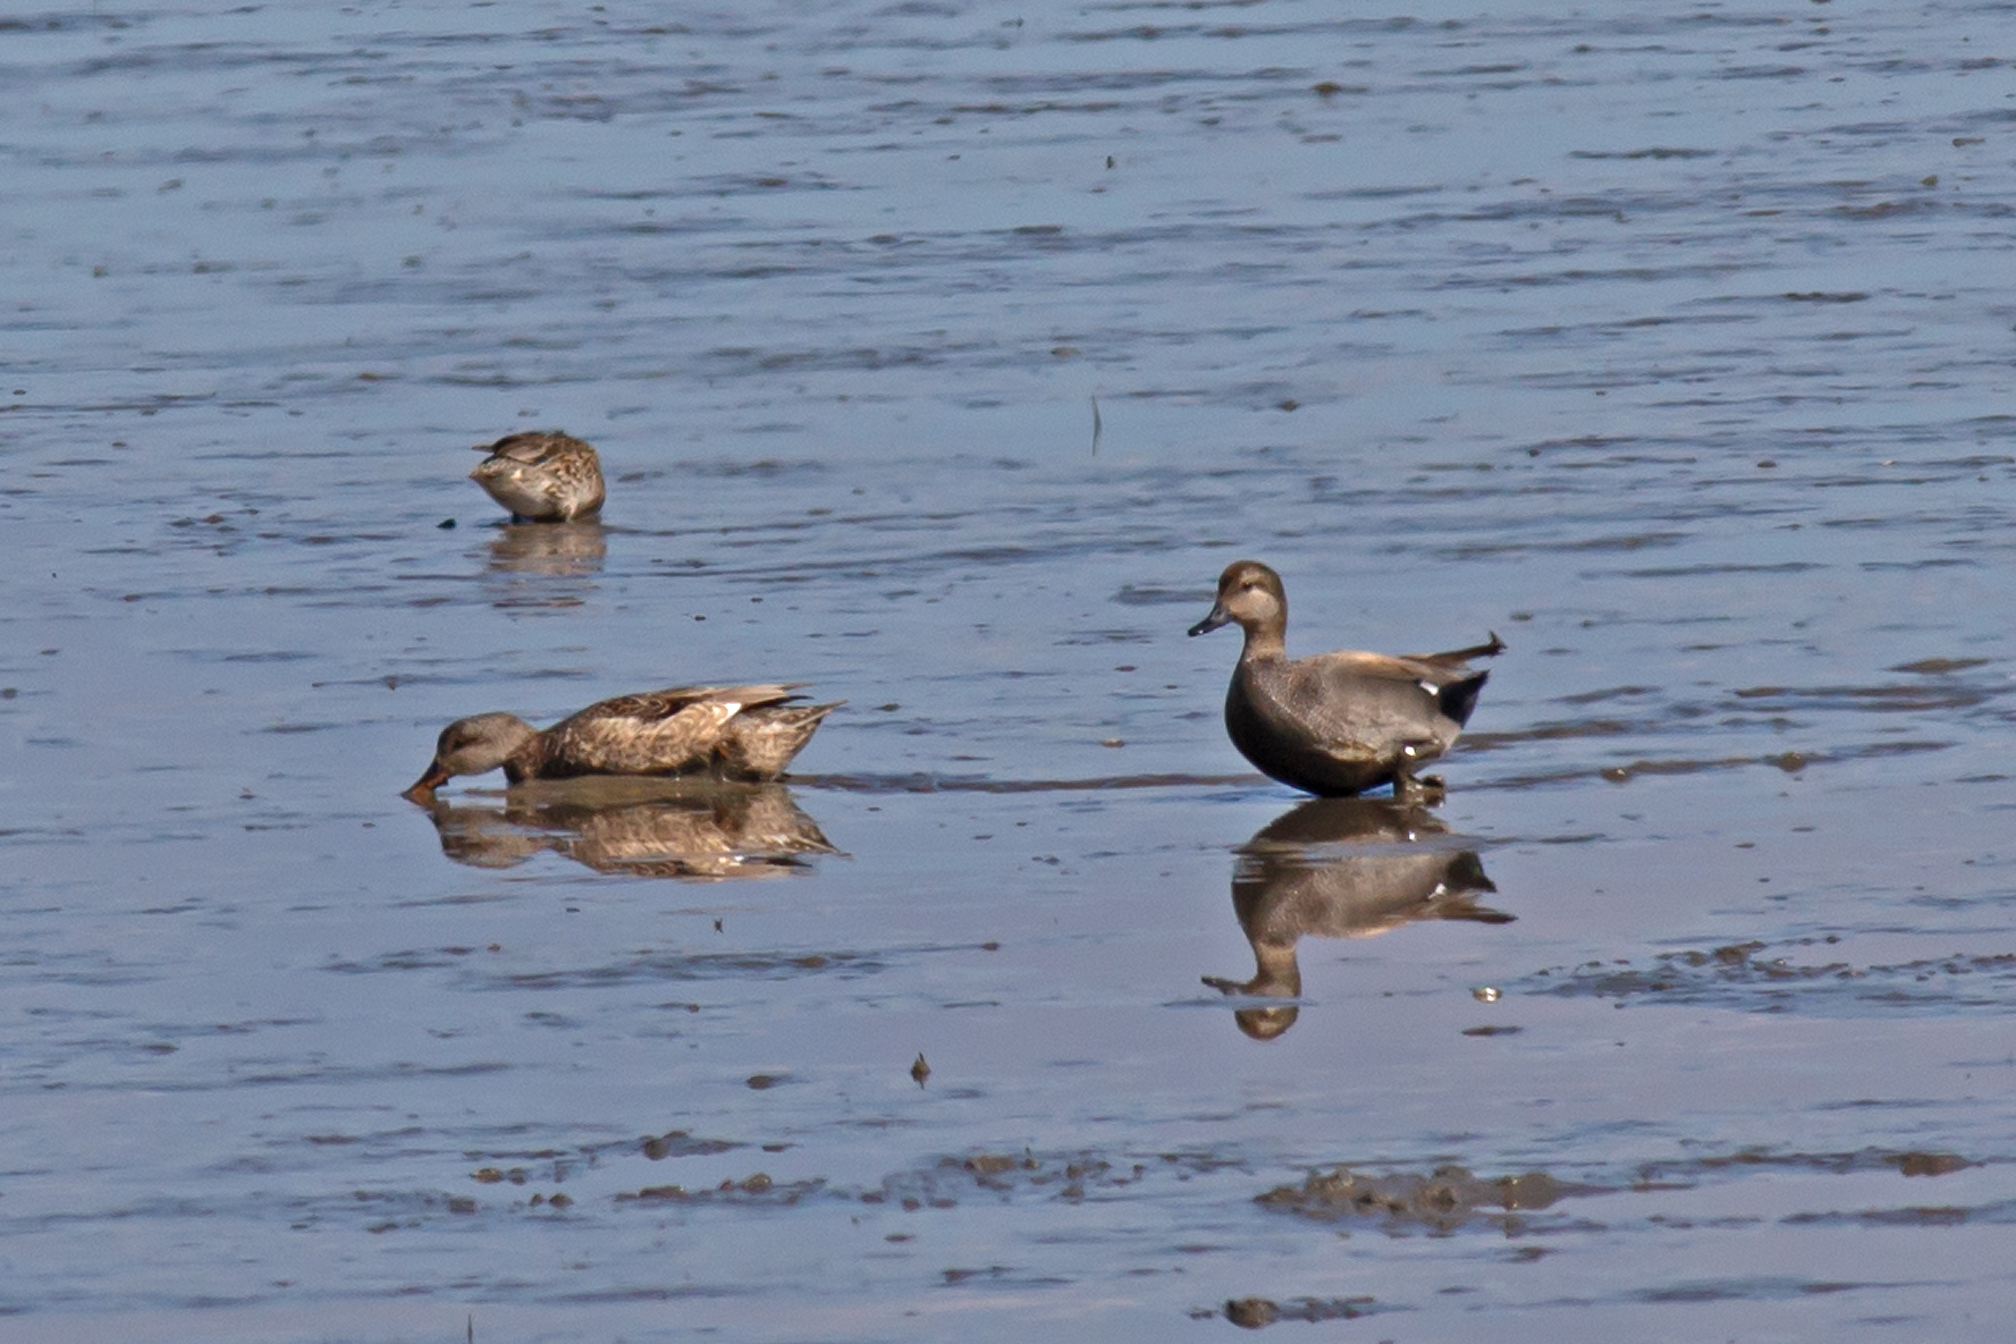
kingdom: Animalia
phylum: Chordata
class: Aves
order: Anseriformes
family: Anatidae
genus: Mareca
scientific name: Mareca strepera
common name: Gadwall
